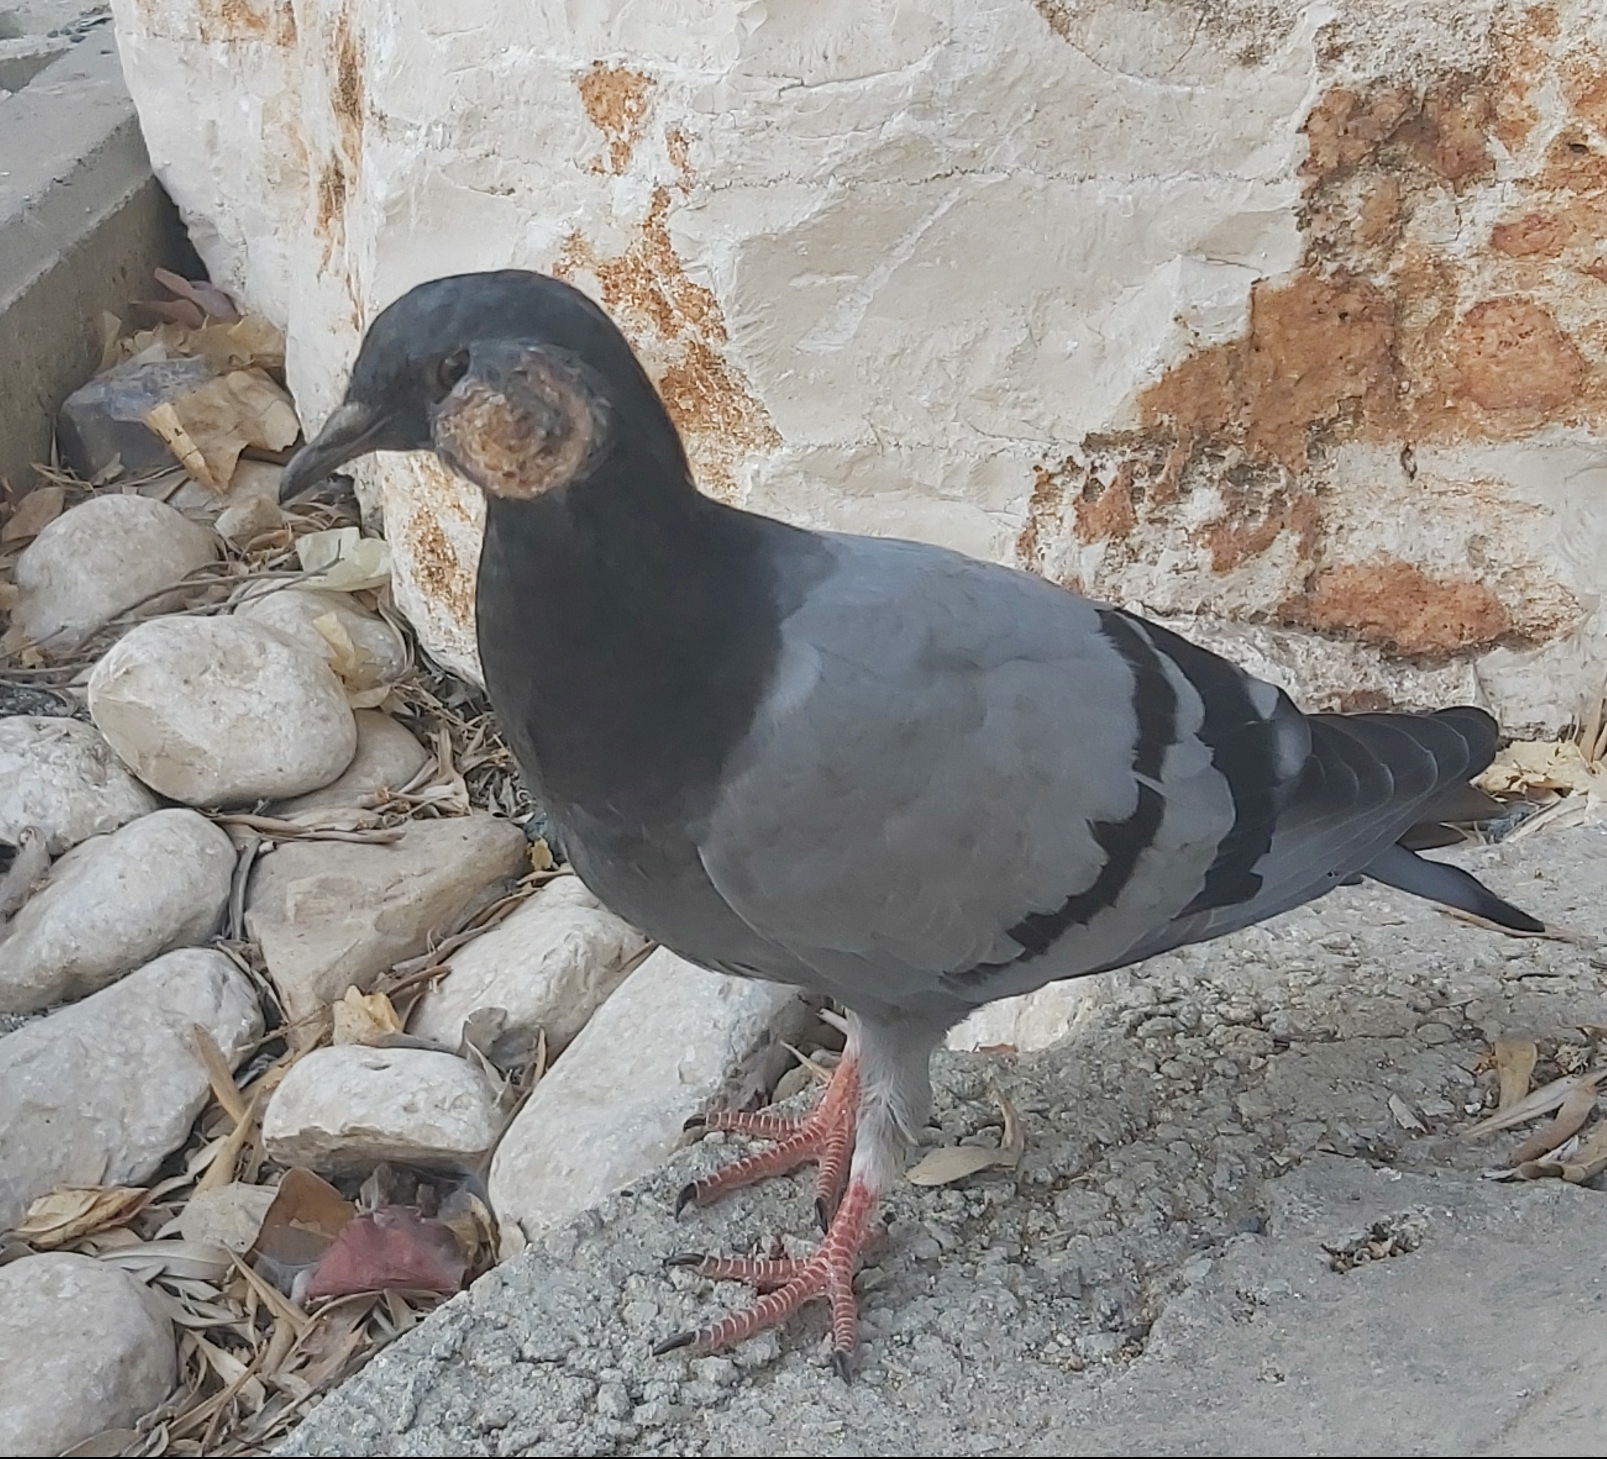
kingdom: Animalia
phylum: Chordata
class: Aves
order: Columbiformes
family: Columbidae
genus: Columba
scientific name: Columba livia
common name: Rock pigeon
